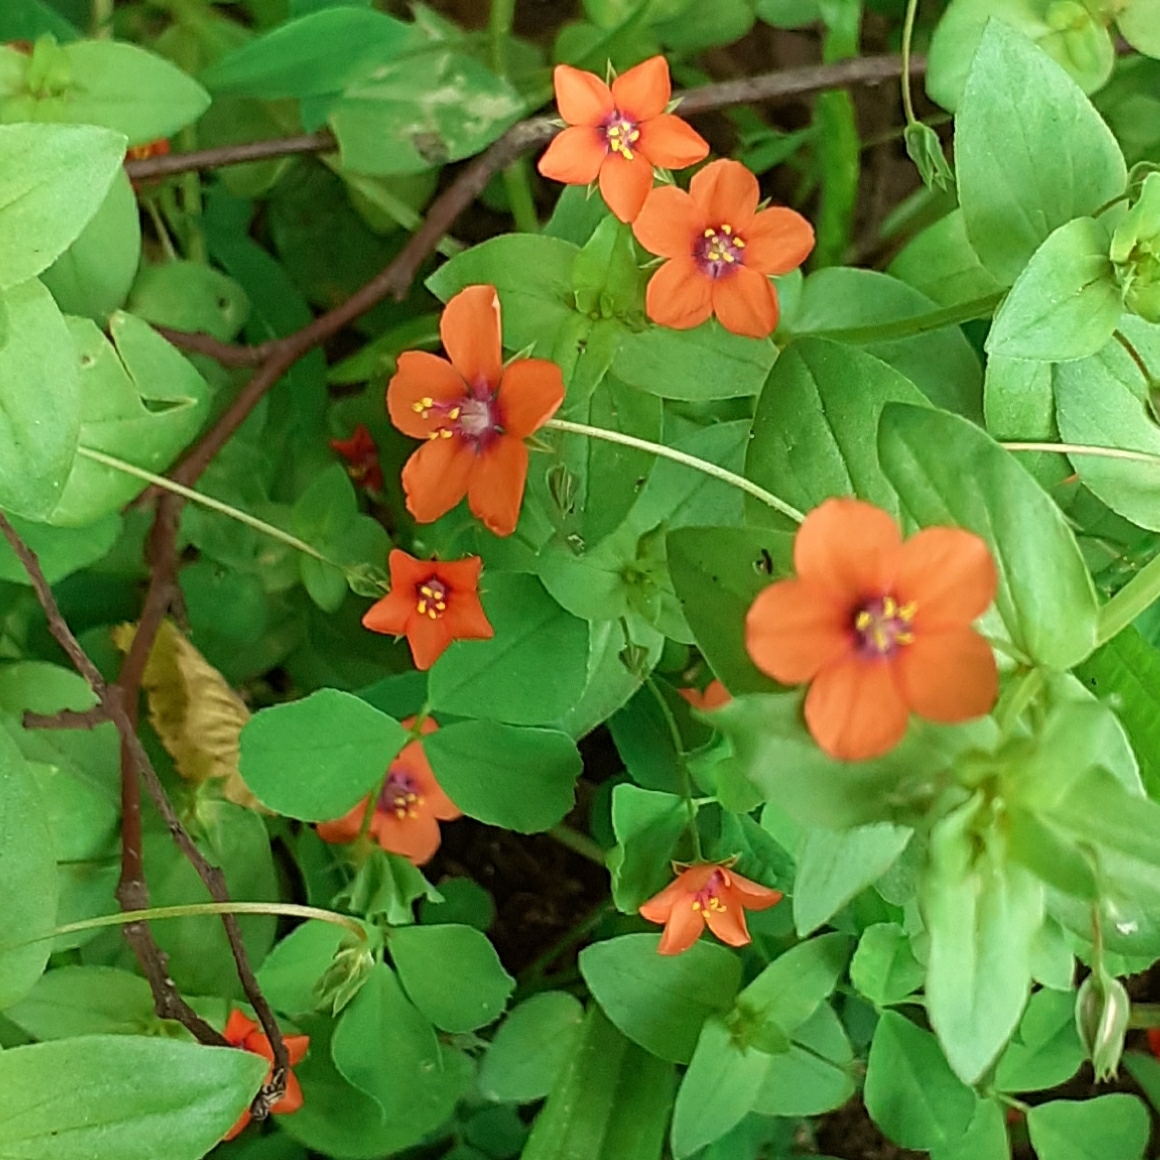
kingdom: Plantae
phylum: Tracheophyta
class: Magnoliopsida
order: Ericales
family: Primulaceae
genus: Lysimachia
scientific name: Lysimachia arvensis
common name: Scarlet pimpernel
